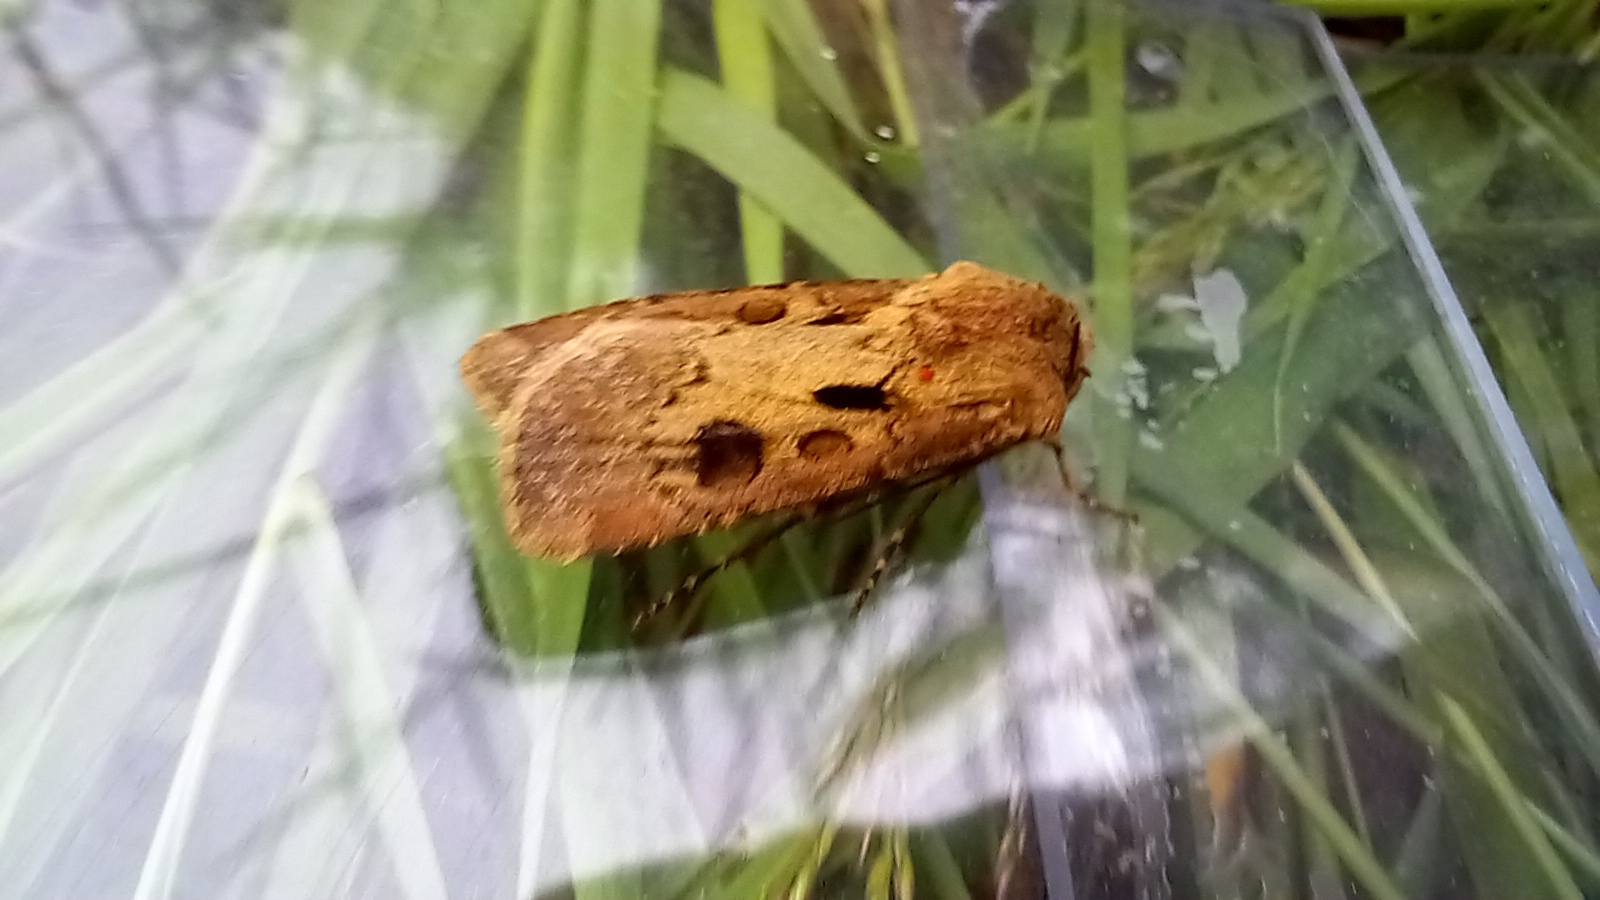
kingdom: Animalia
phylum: Arthropoda
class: Insecta
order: Lepidoptera
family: Noctuidae
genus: Agrotis
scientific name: Agrotis exclamationis
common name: Heart and dart
